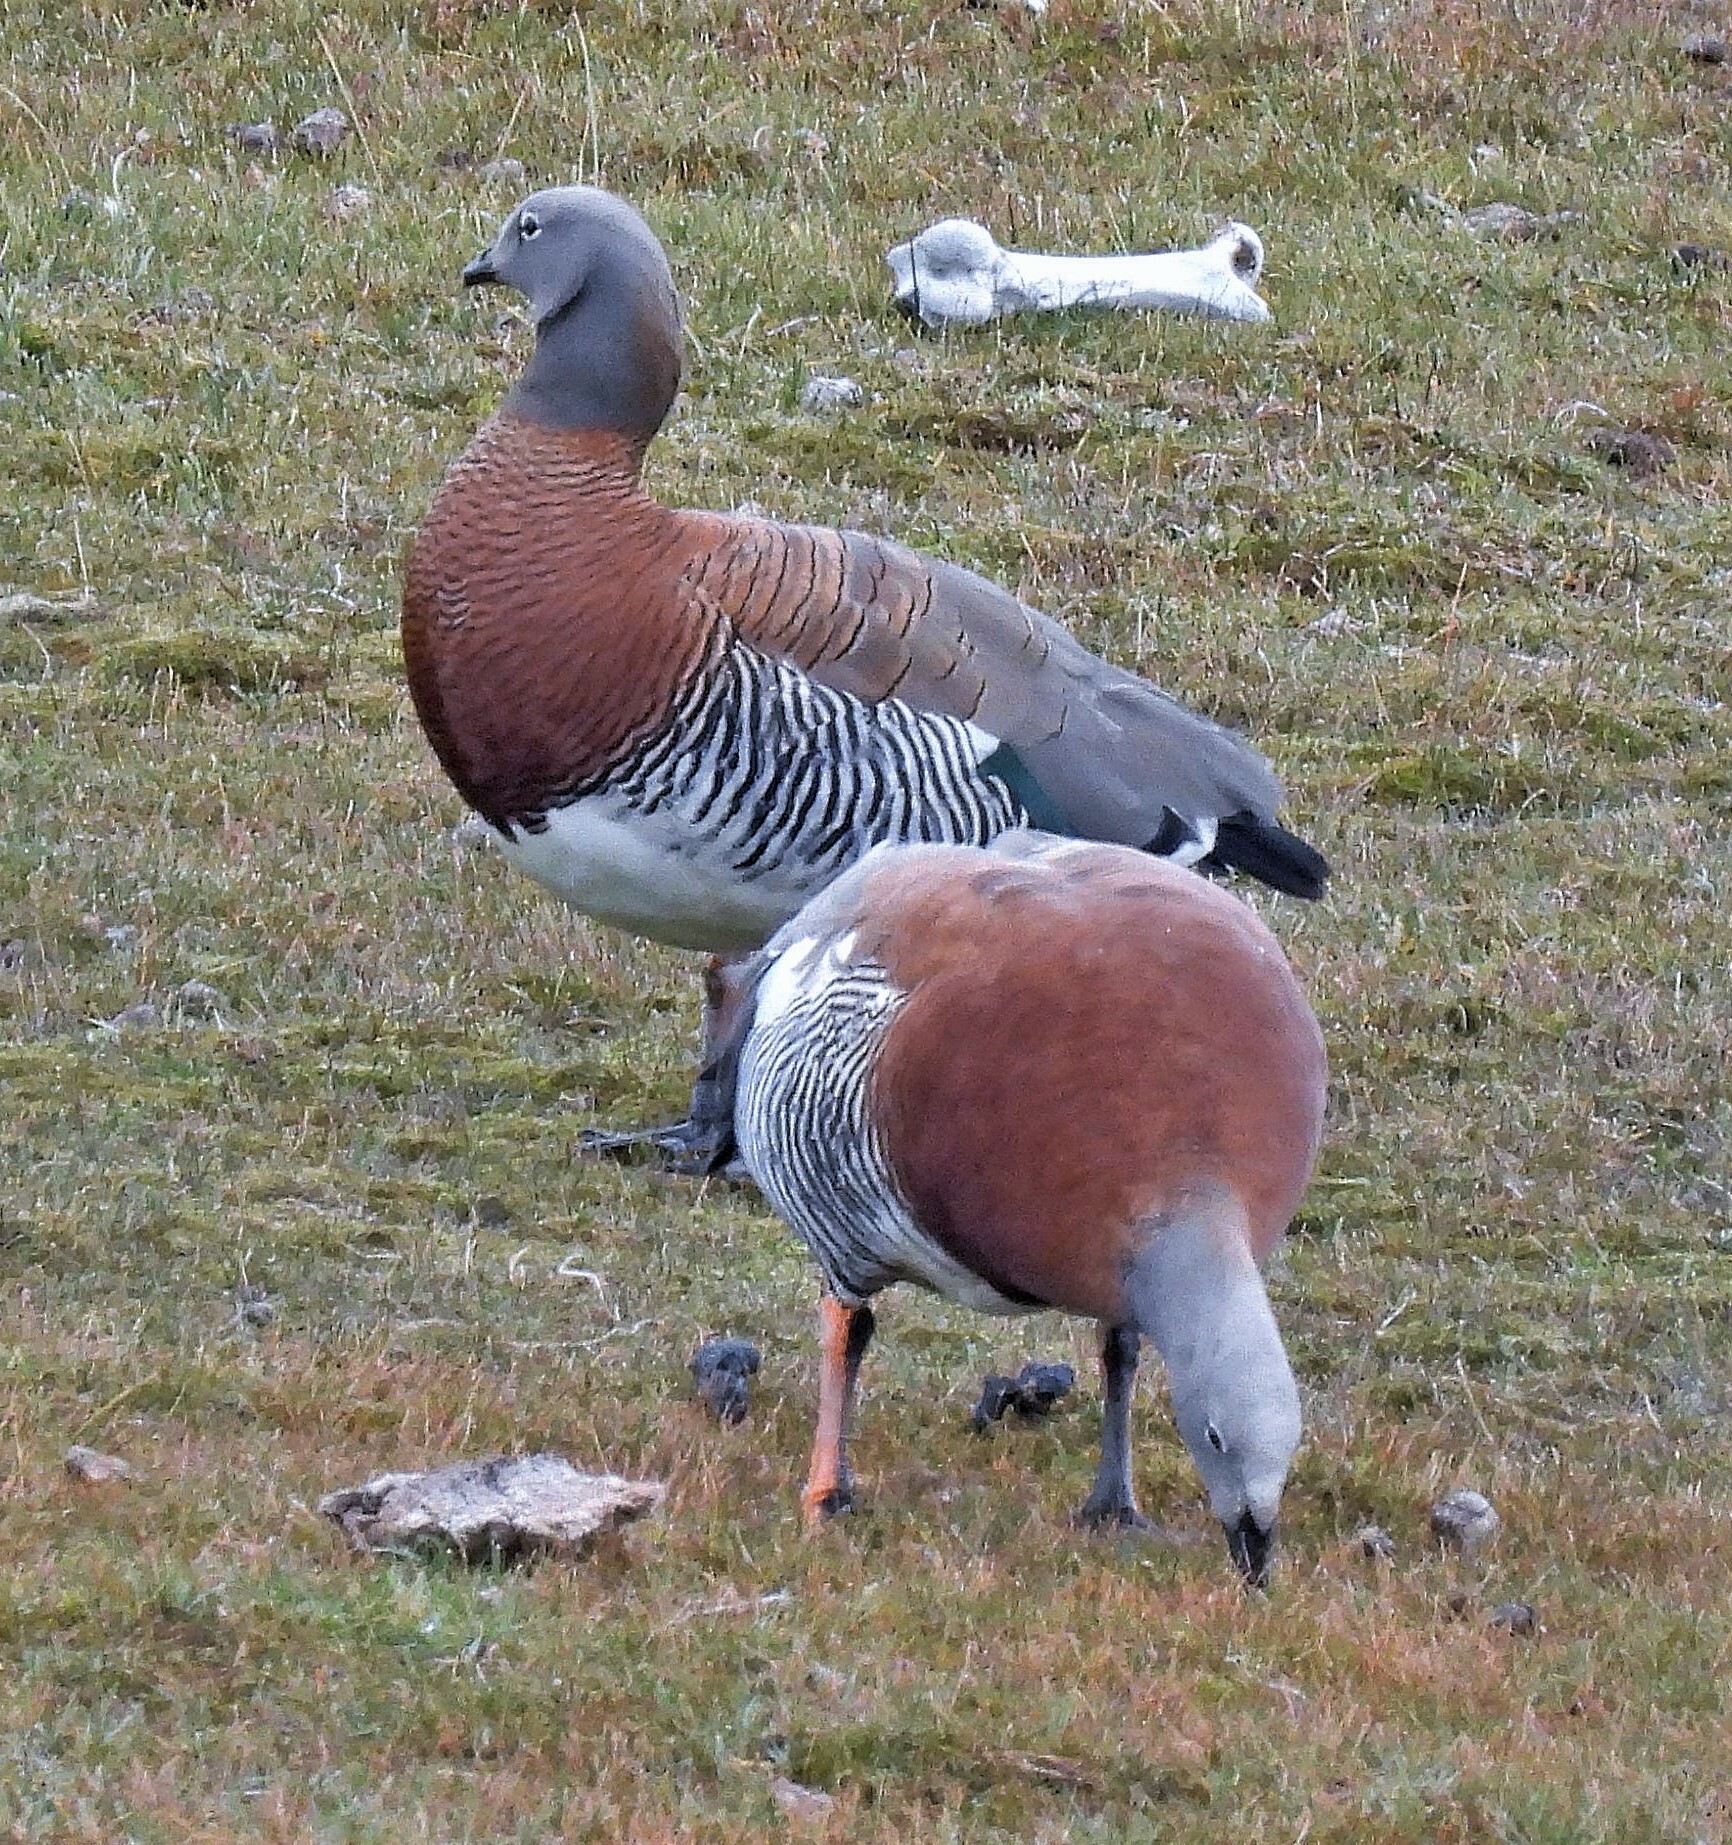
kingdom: Animalia
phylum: Chordata
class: Aves
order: Anseriformes
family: Anatidae
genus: Chloephaga
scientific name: Chloephaga poliocephala
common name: Ashy-headed goose
